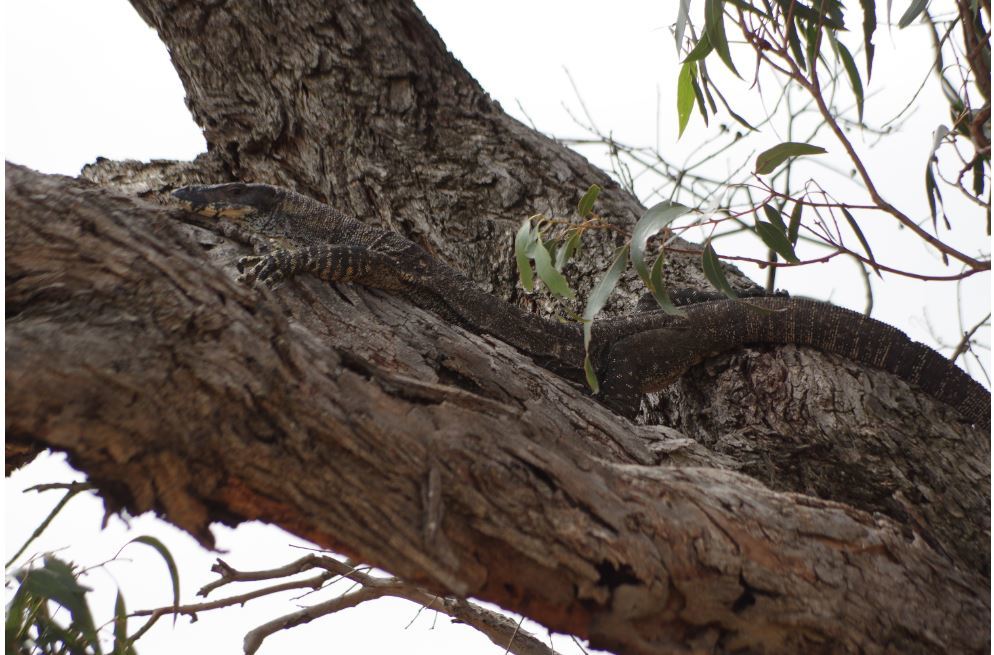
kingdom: Animalia
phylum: Chordata
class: Squamata
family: Varanidae
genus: Varanus
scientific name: Varanus varius
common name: Lace monitor
